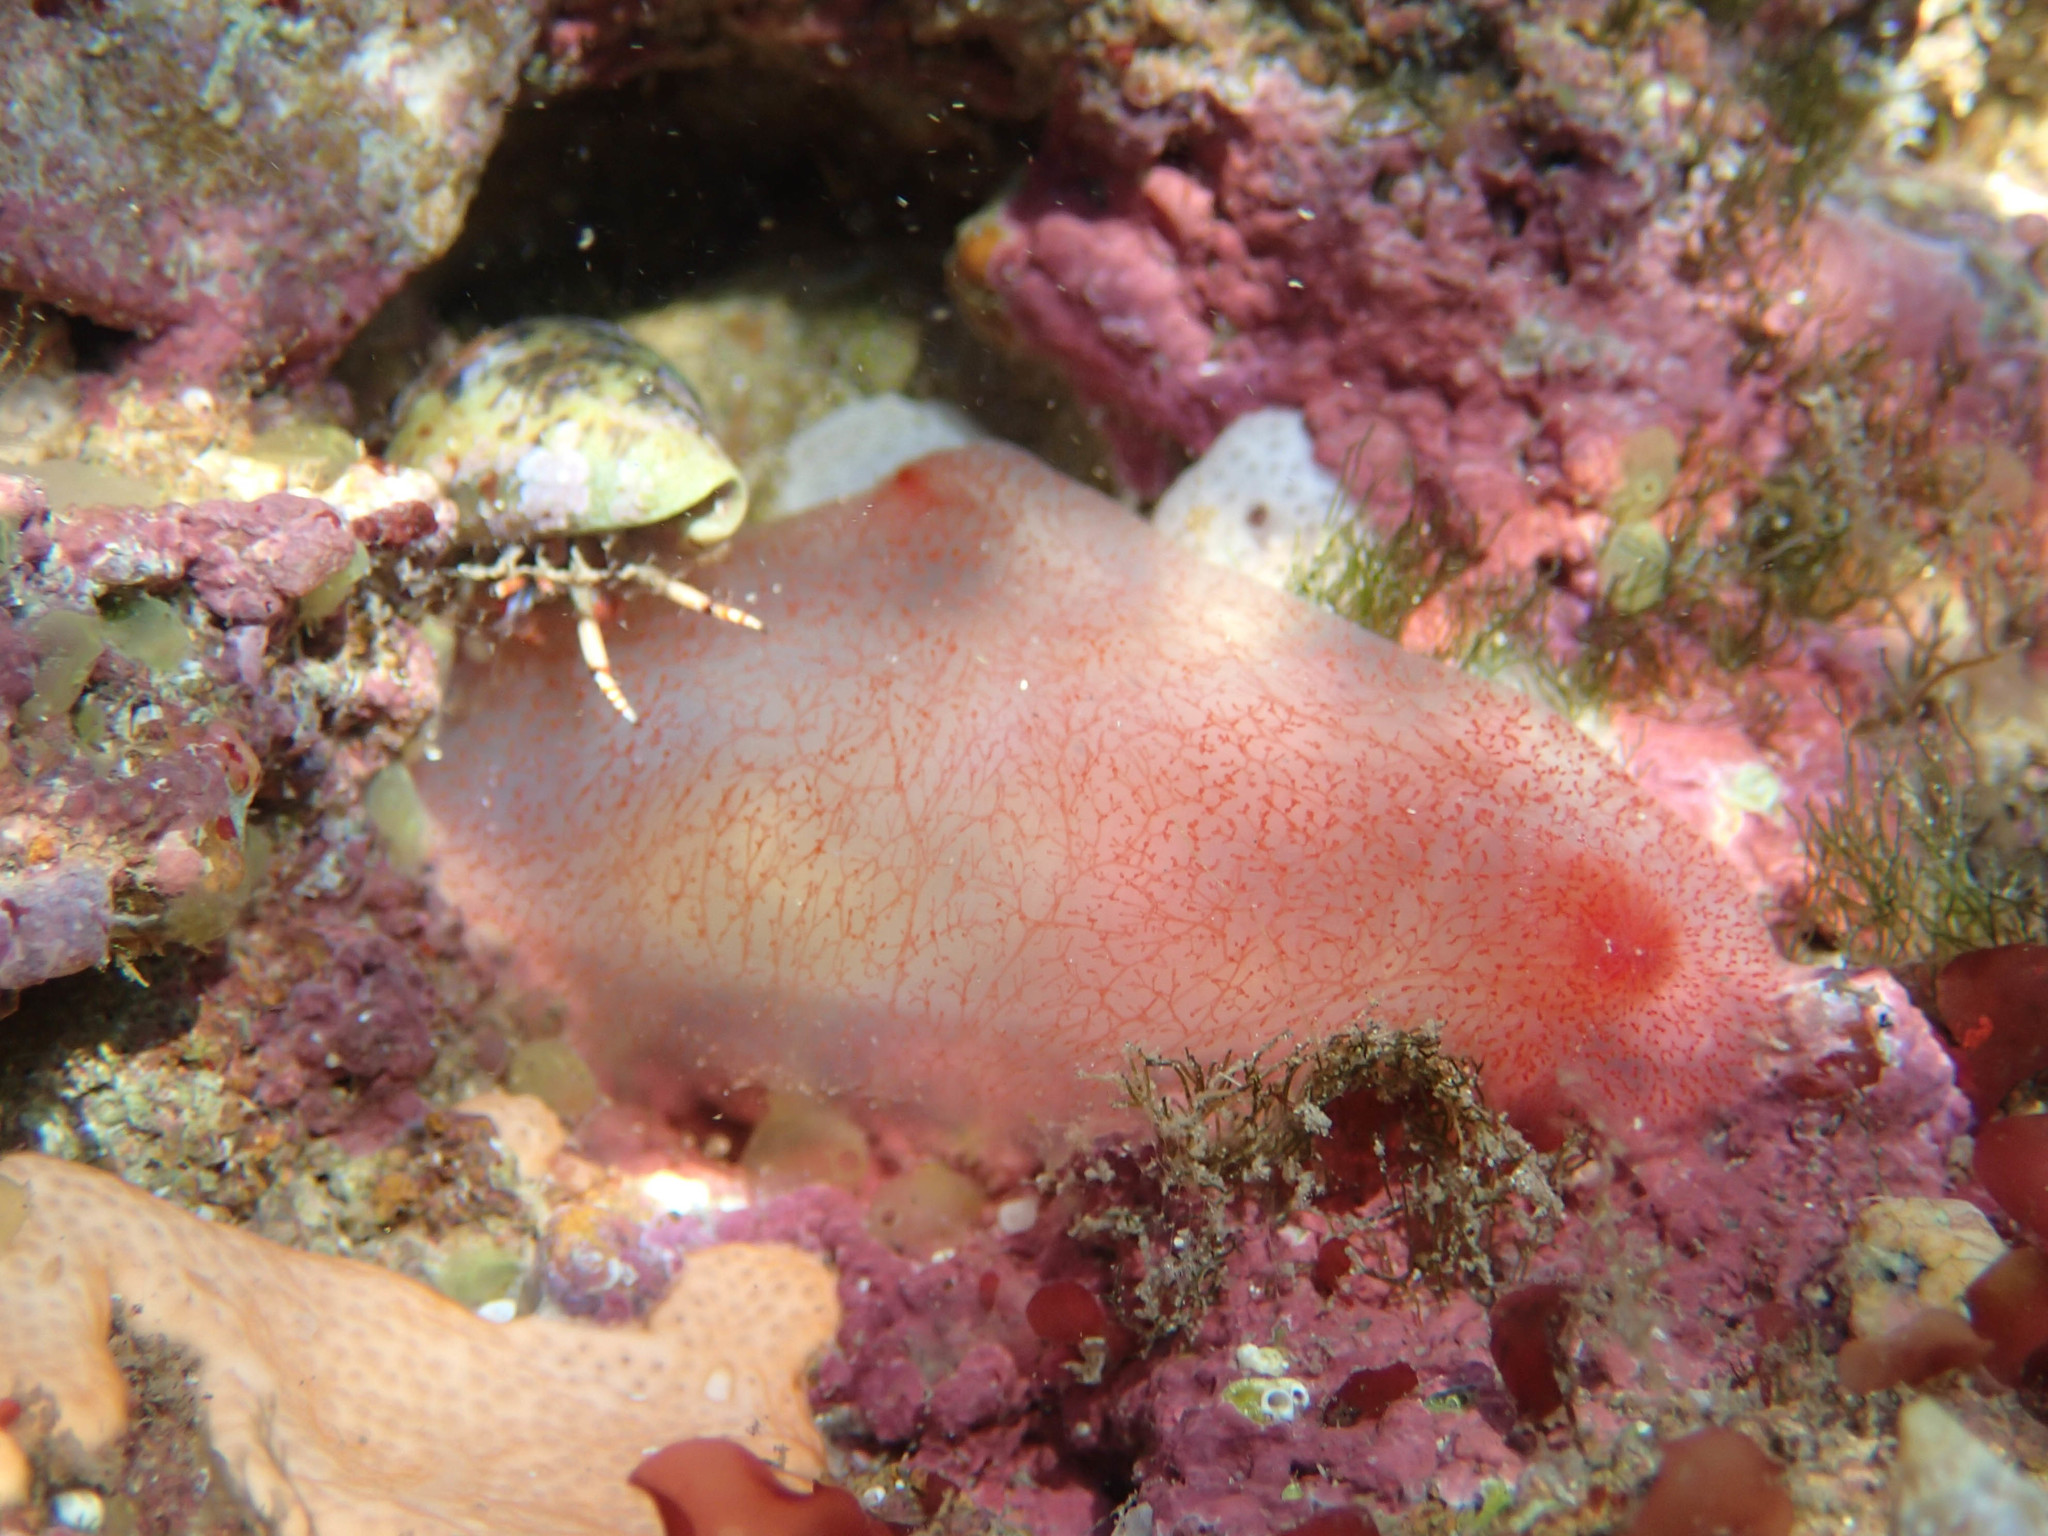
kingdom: Animalia
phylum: Chordata
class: Ascidiacea
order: Phlebobranchia
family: Ascidiidae
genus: Ascidia
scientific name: Ascidia mentula
